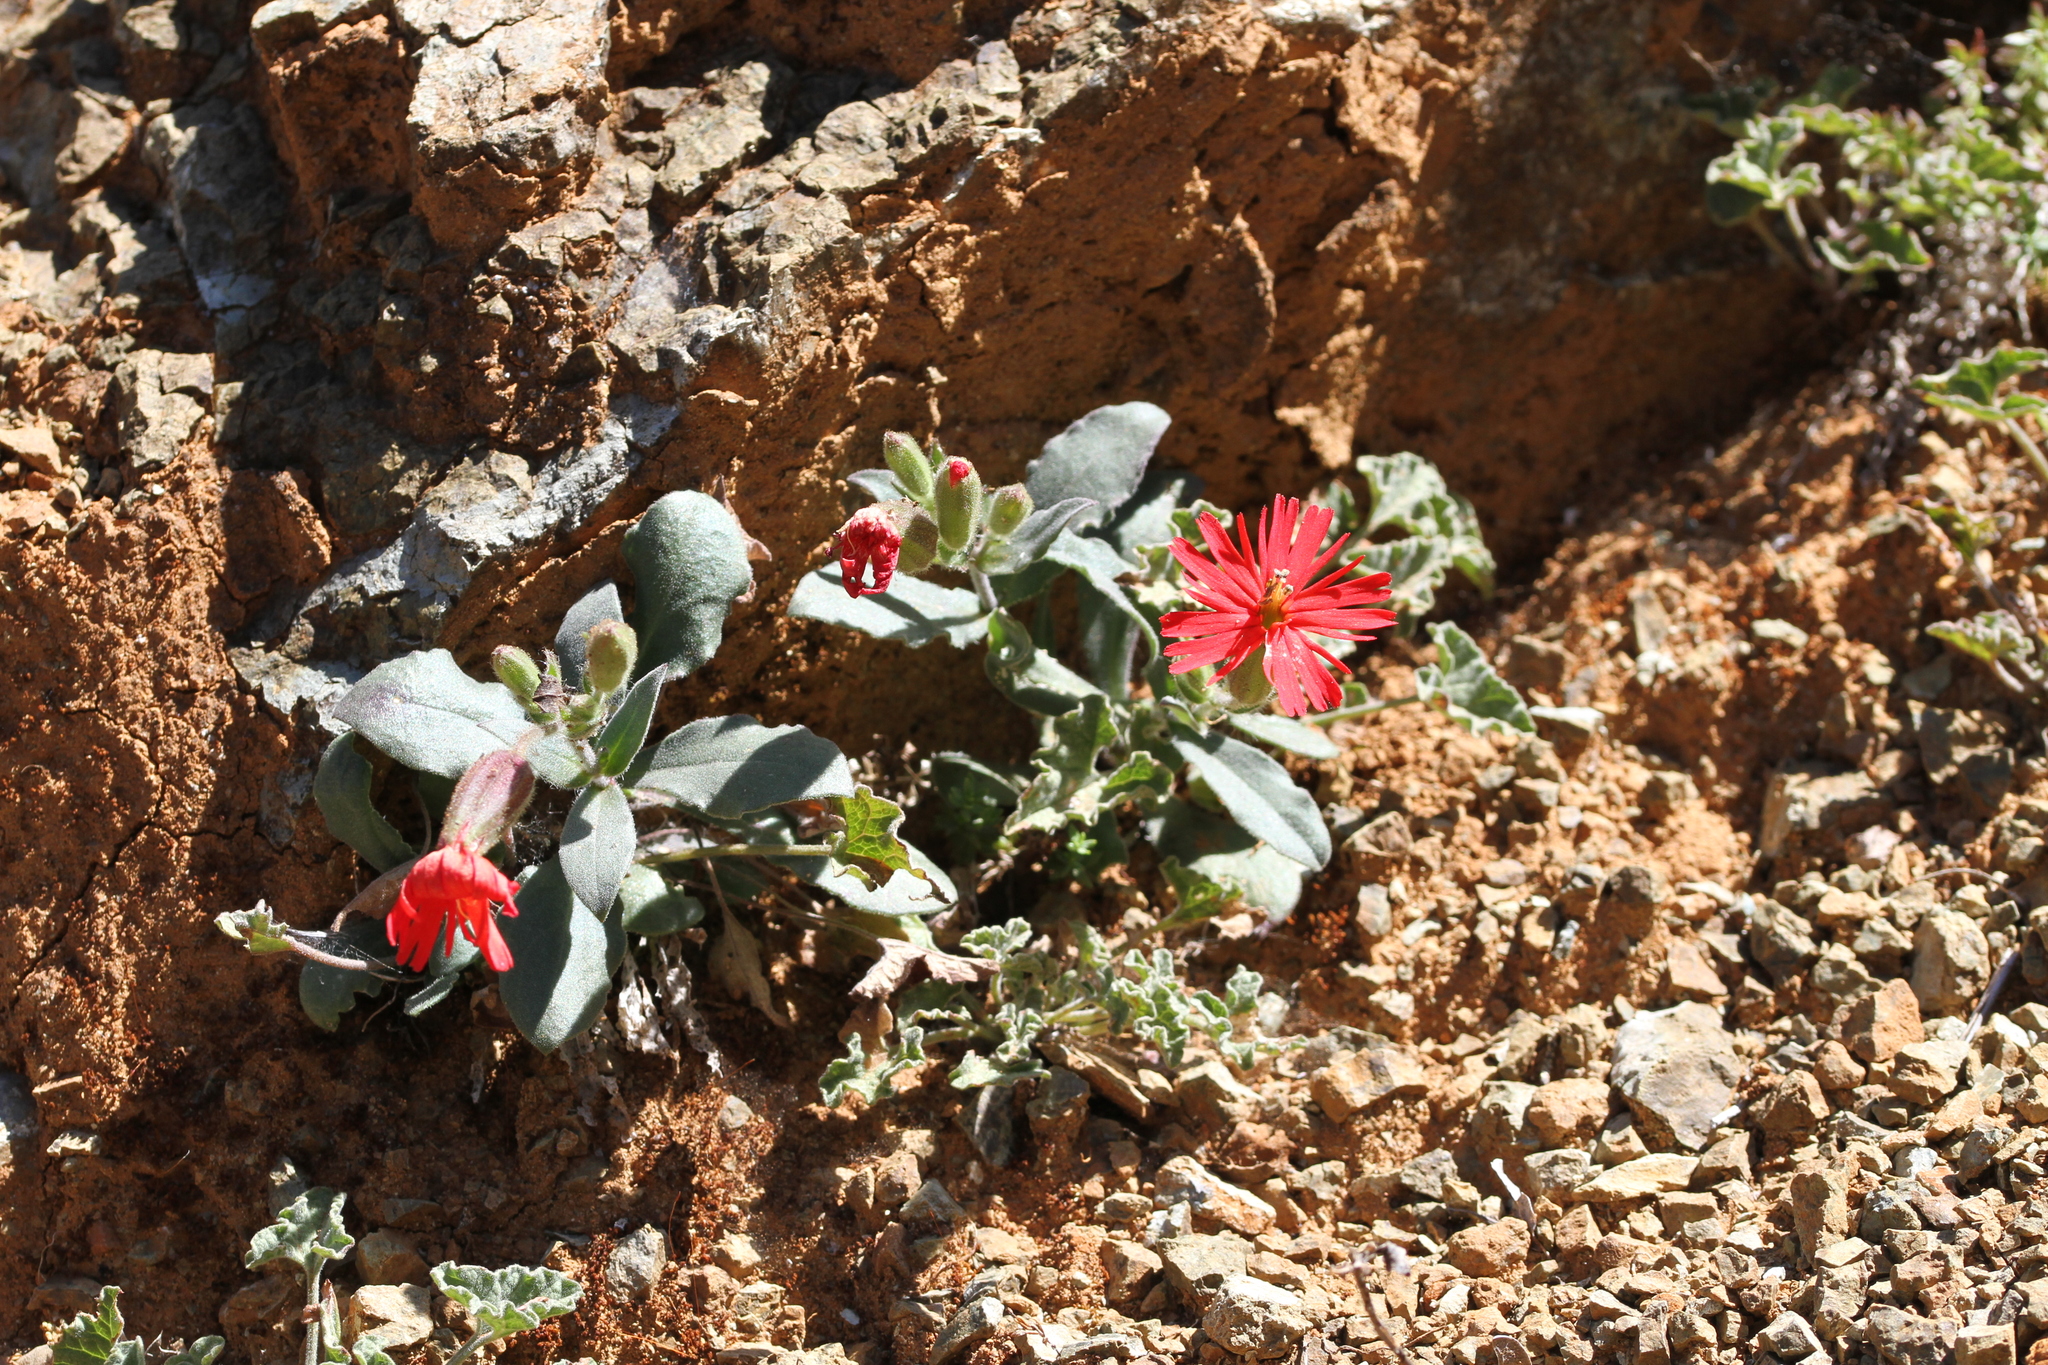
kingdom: Plantae
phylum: Tracheophyta
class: Magnoliopsida
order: Caryophyllales
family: Caryophyllaceae
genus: Silene
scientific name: Silene laciniata
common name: Indian-pink
